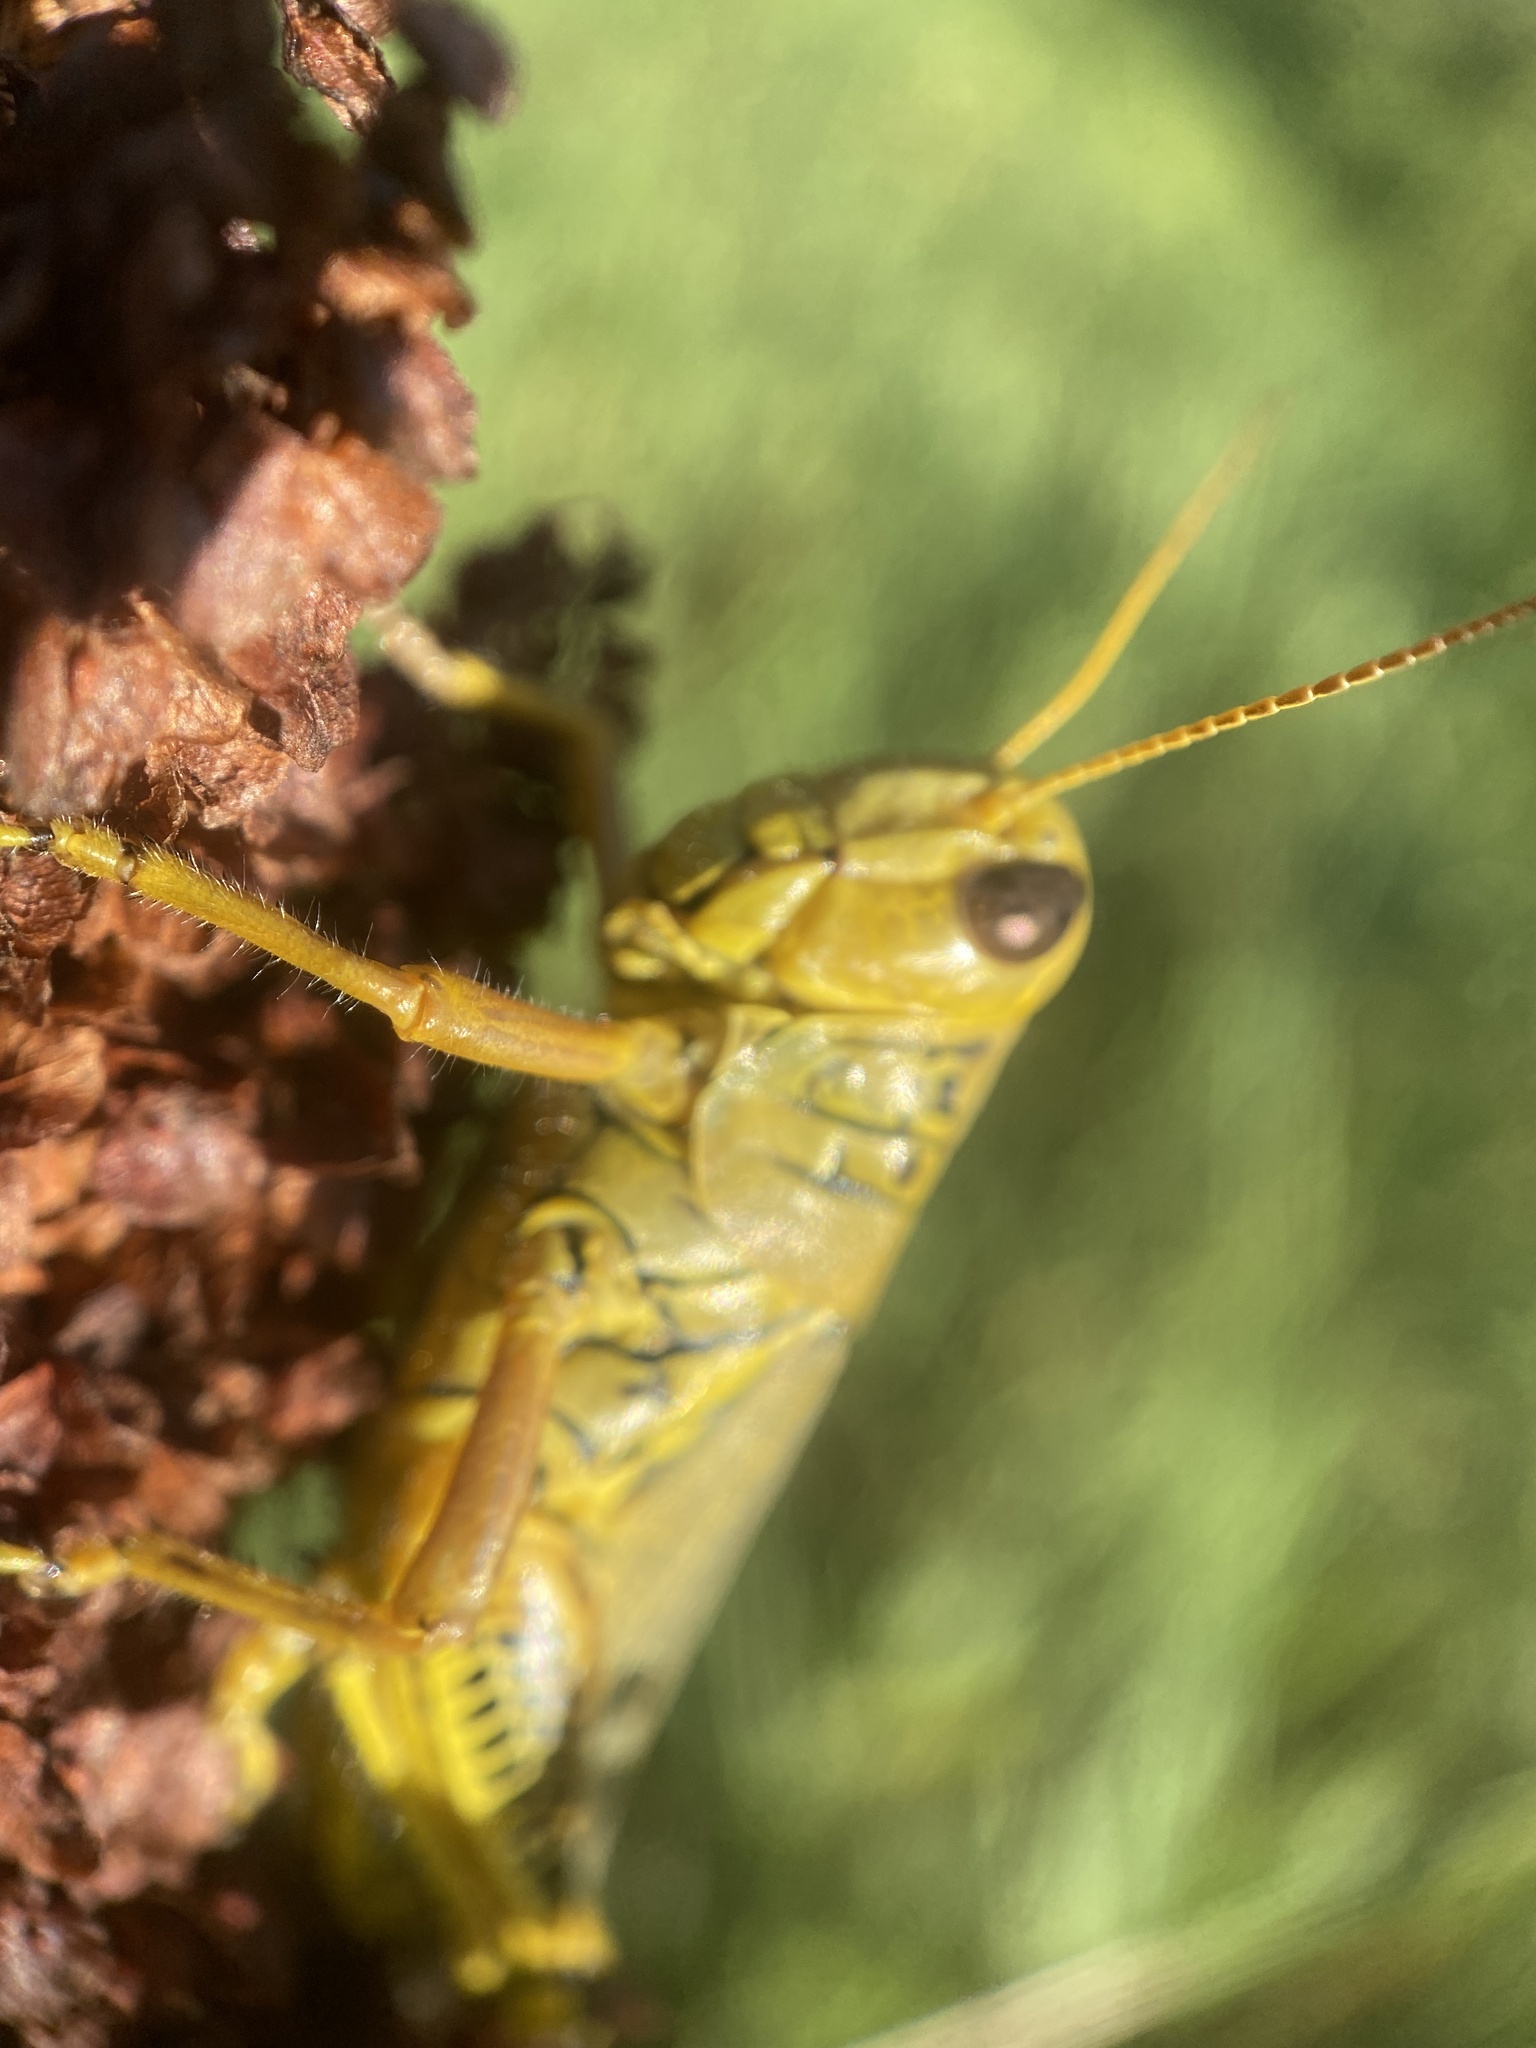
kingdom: Animalia
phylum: Arthropoda
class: Insecta
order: Orthoptera
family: Acrididae
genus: Melanoplus
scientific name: Melanoplus differentialis
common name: Differential grasshopper
